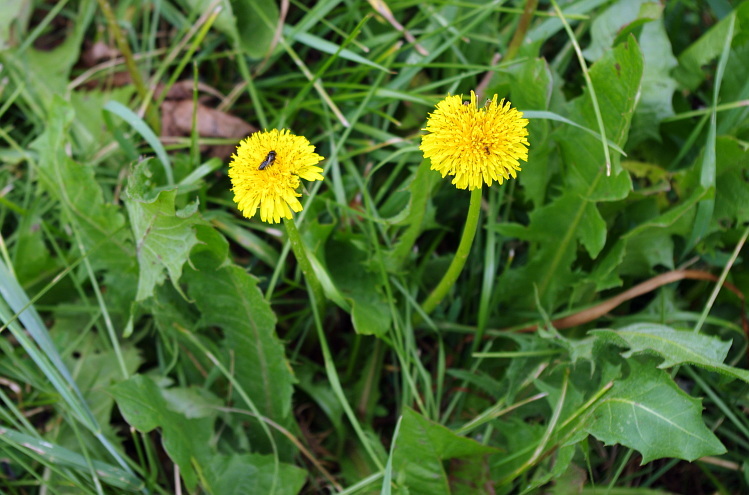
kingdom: Plantae
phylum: Tracheophyta
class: Magnoliopsida
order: Asterales
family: Asteraceae
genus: Taraxacum
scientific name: Taraxacum officinale
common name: Common dandelion
